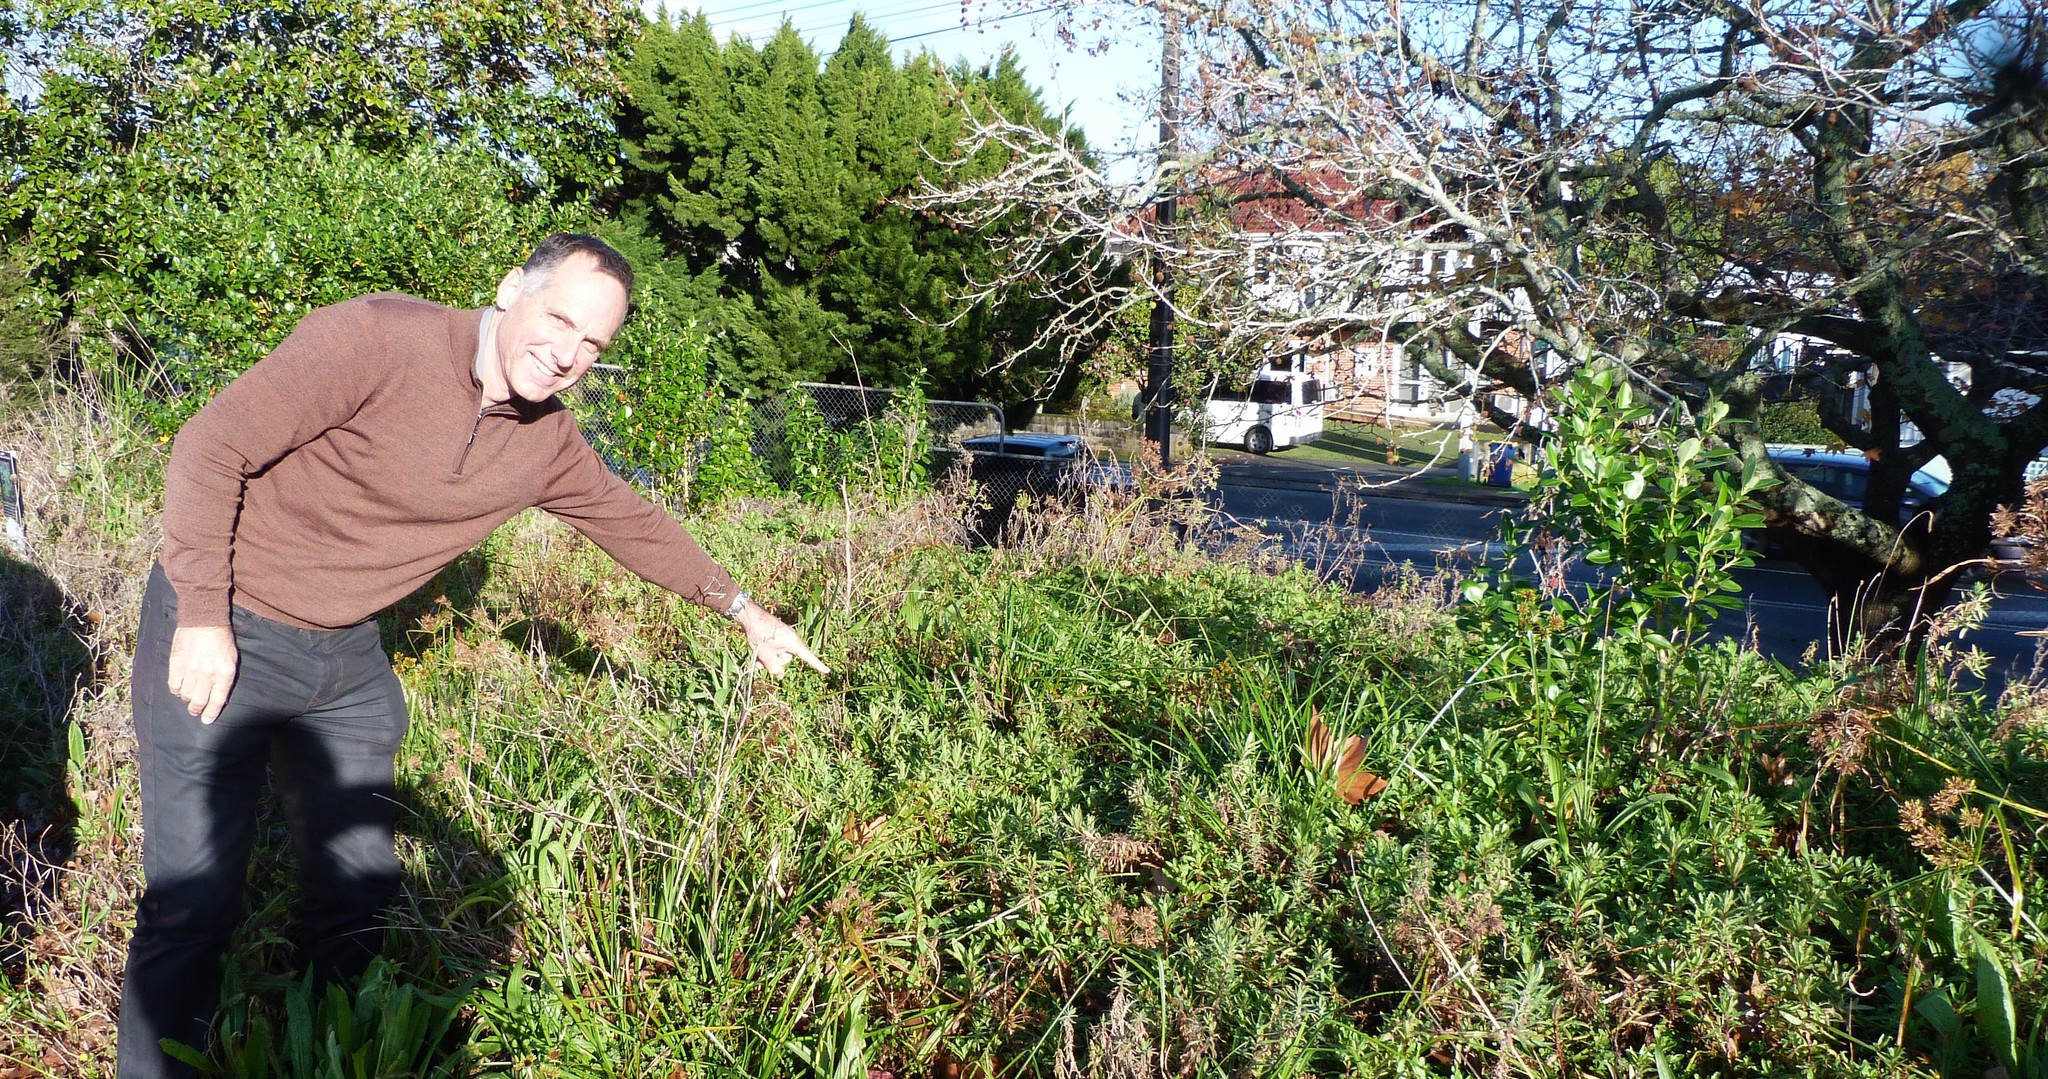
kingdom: Plantae
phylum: Tracheophyta
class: Magnoliopsida
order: Myrtales
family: Onagraceae
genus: Epilobium
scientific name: Epilobium hirtigerum
